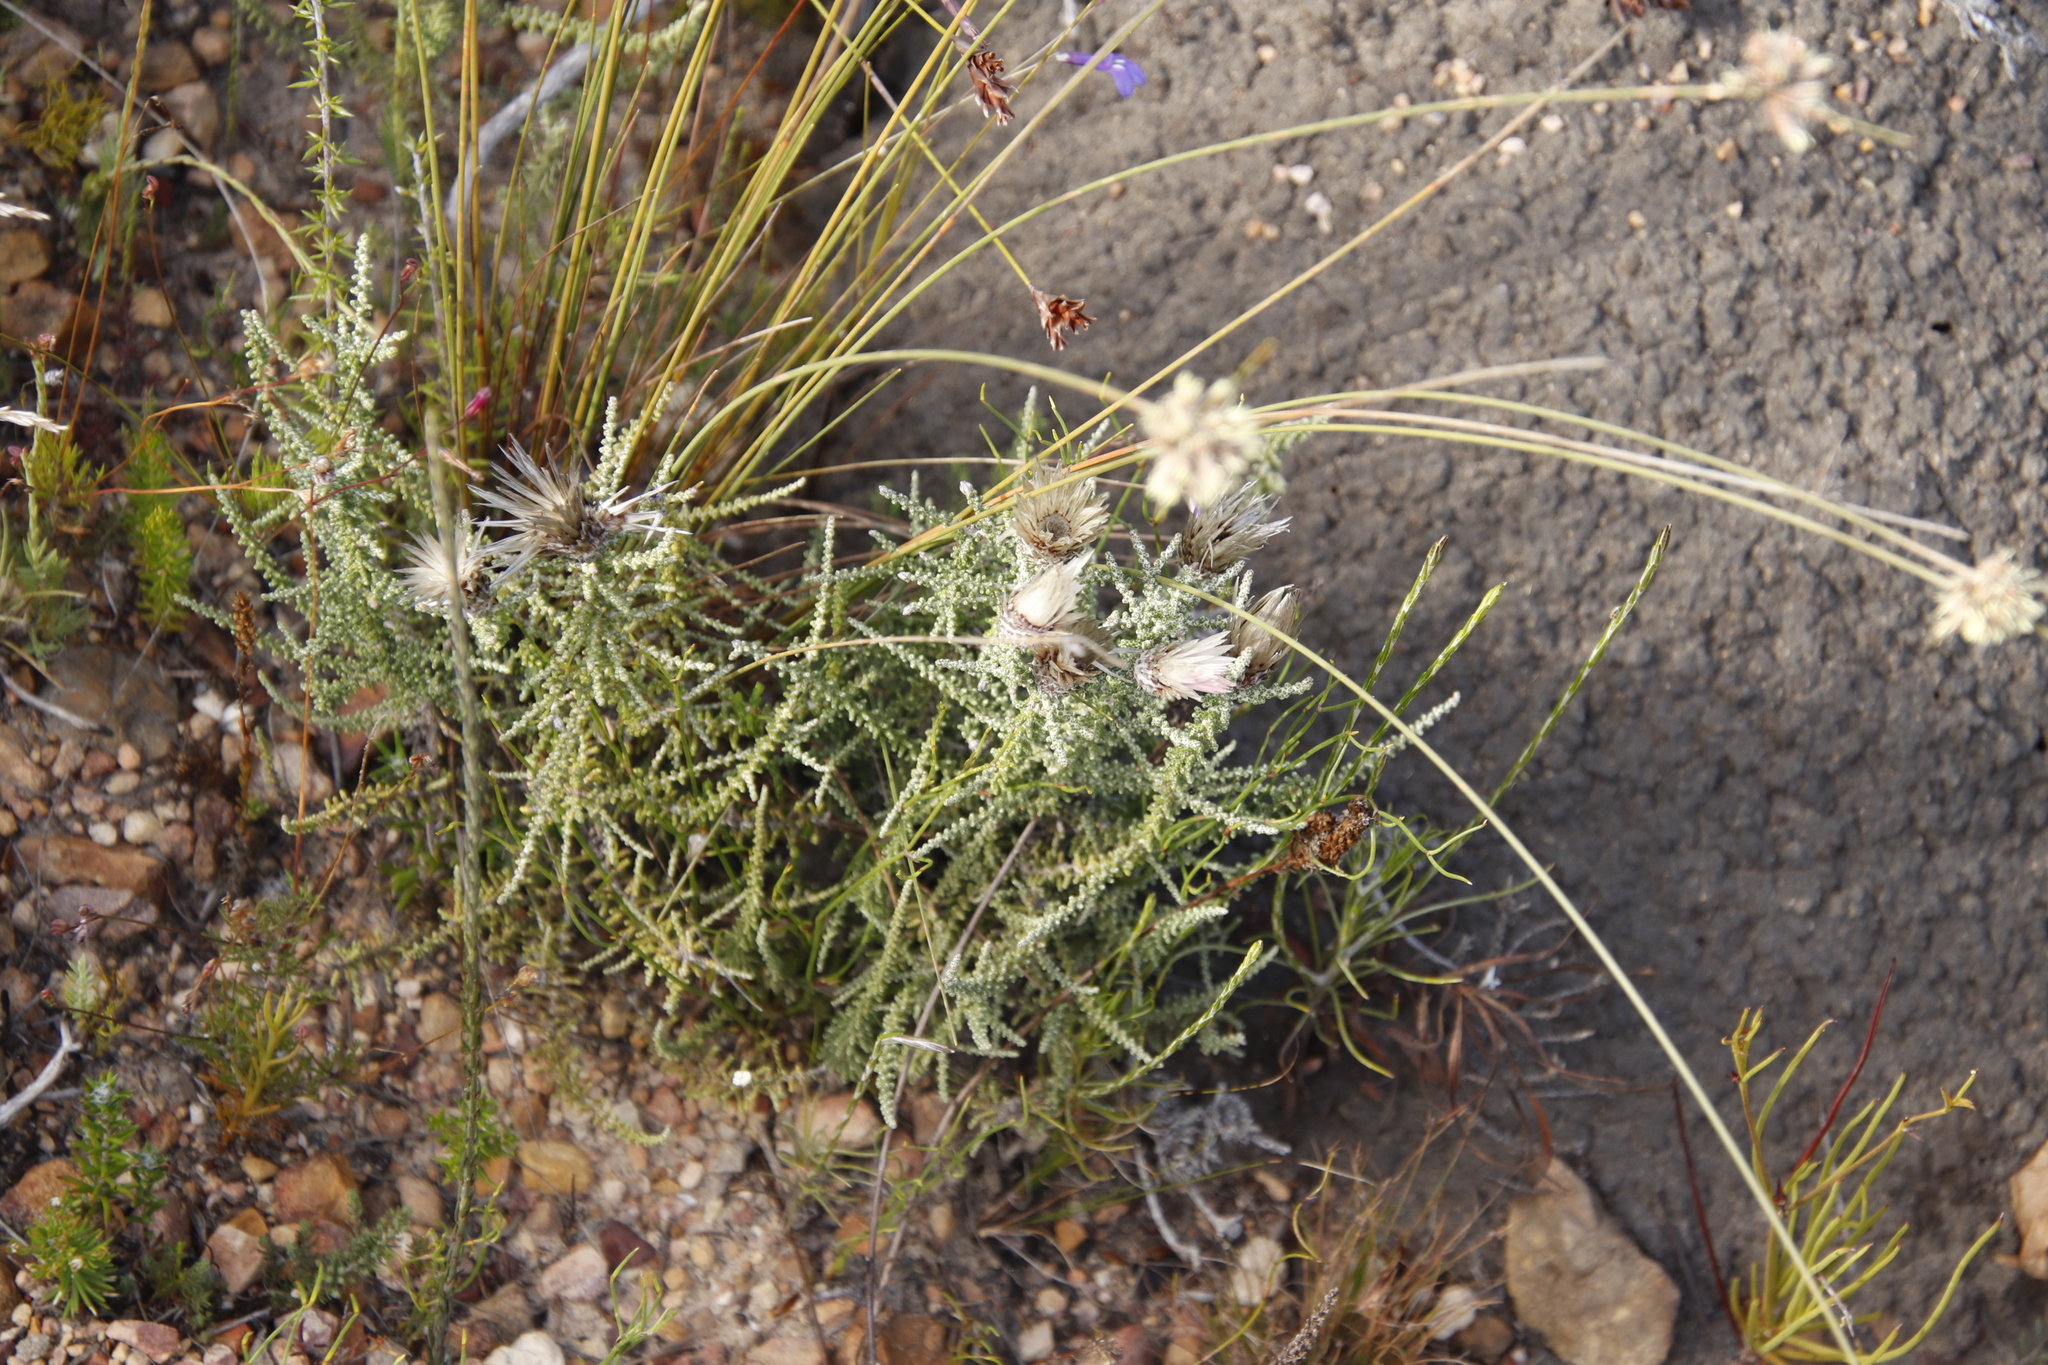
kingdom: Plantae
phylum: Tracheophyta
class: Magnoliopsida
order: Asterales
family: Asteraceae
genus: Phaenocoma
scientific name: Phaenocoma prolifera
